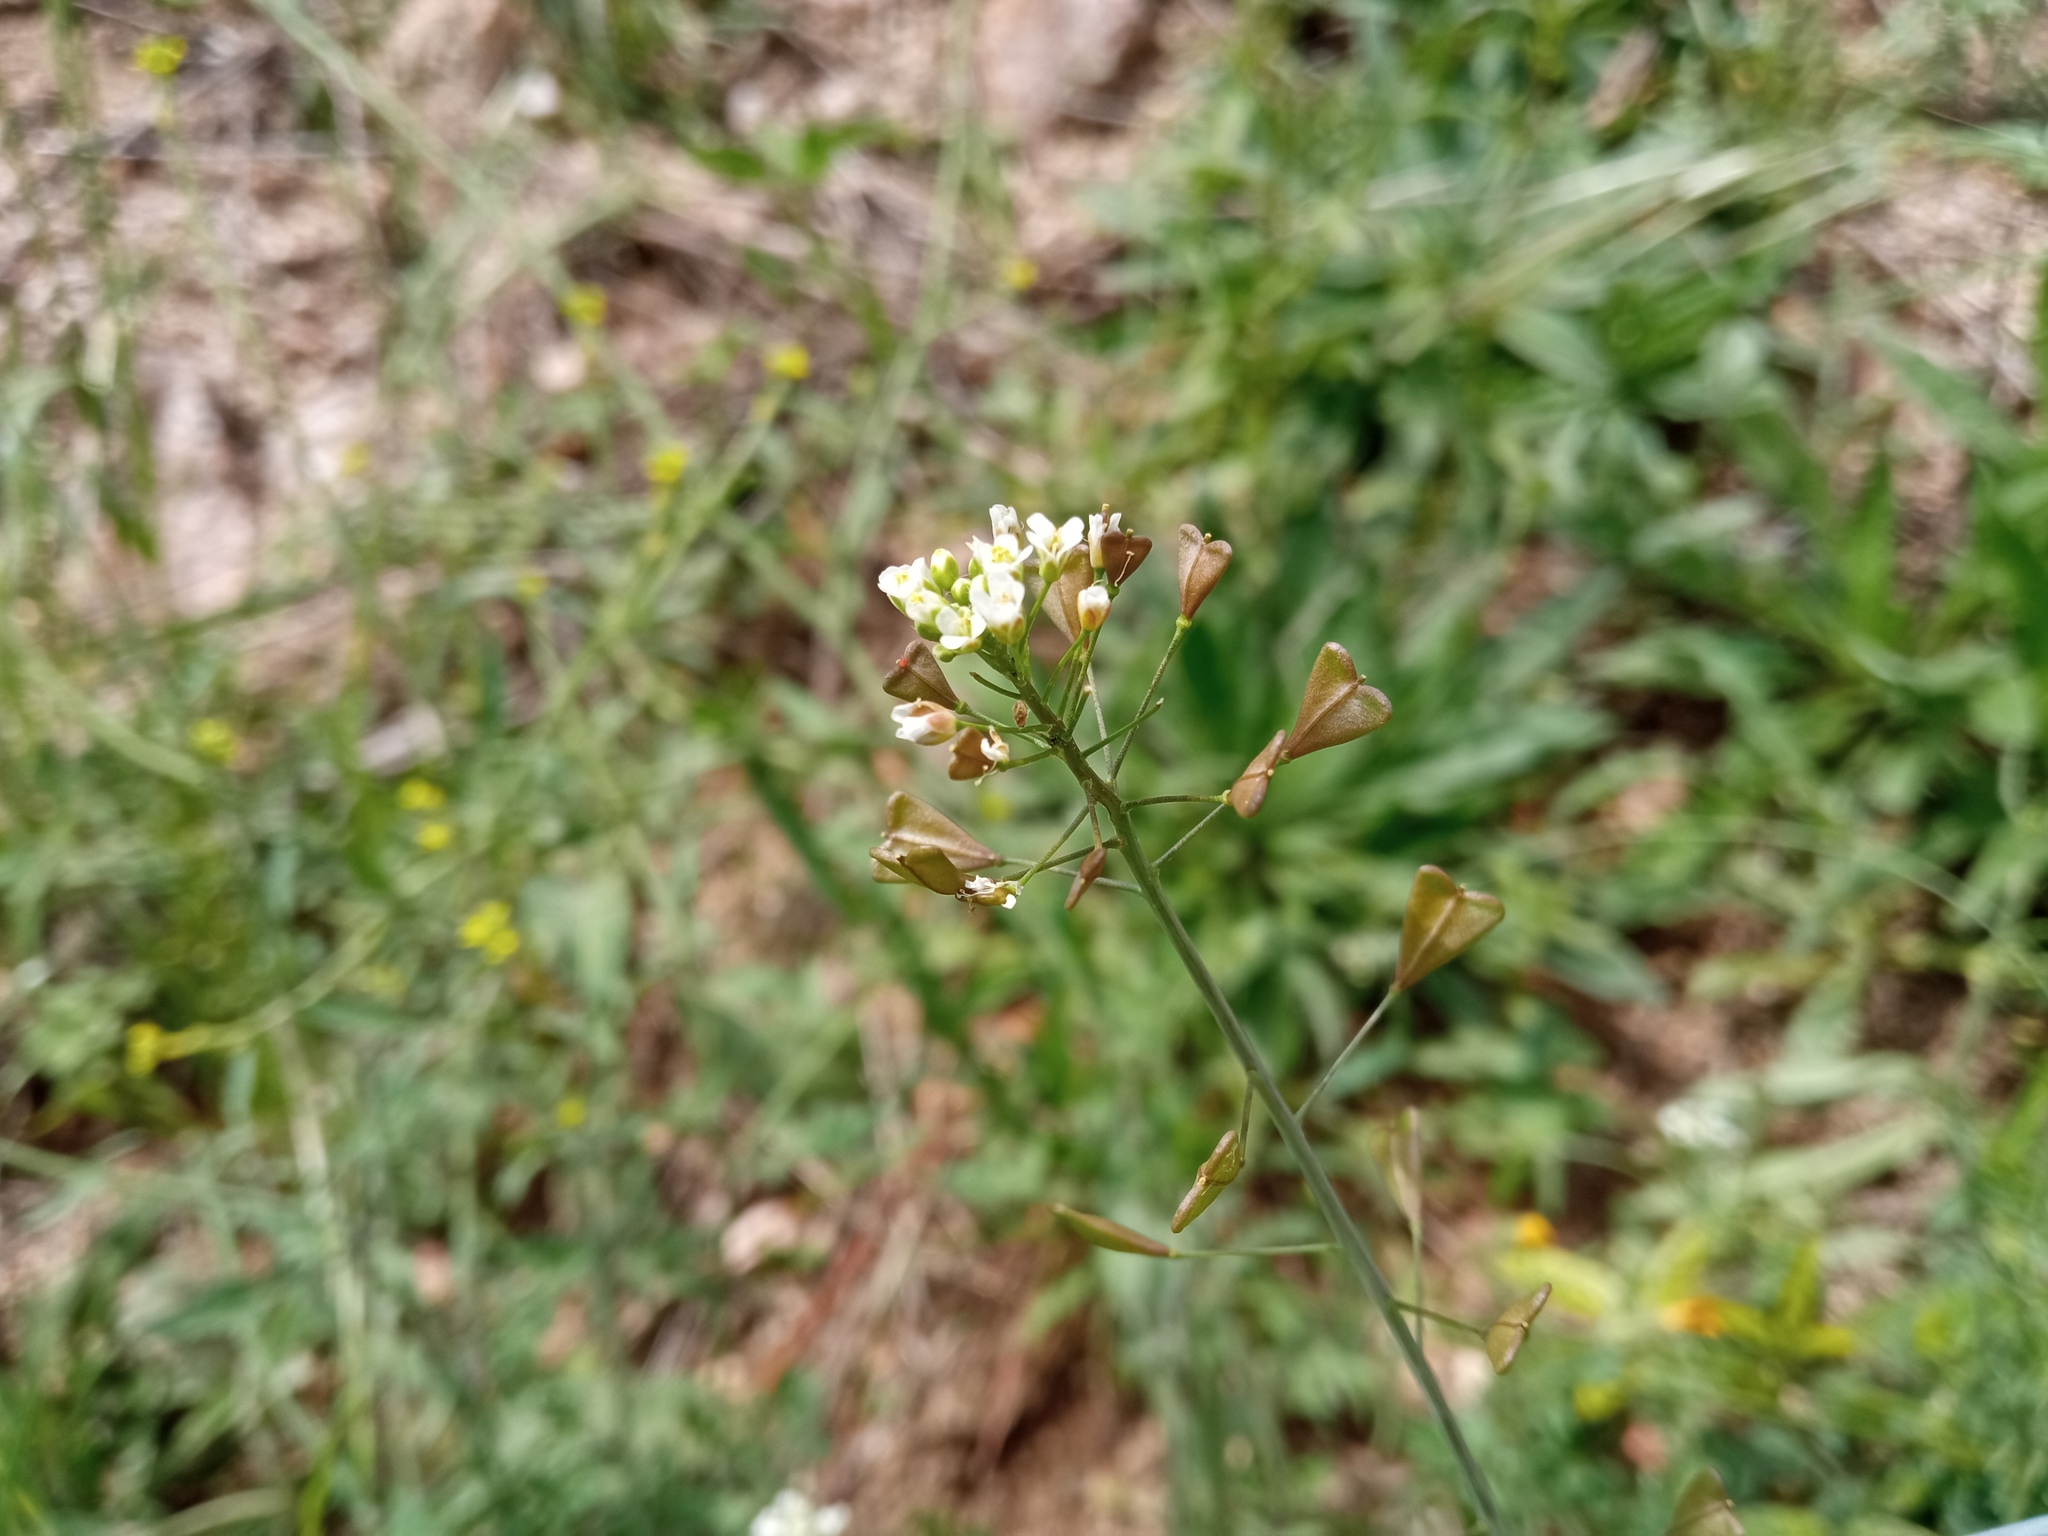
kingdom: Plantae
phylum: Tracheophyta
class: Magnoliopsida
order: Brassicales
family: Brassicaceae
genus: Capsella
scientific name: Capsella bursa-pastoris
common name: Shepherd's purse
